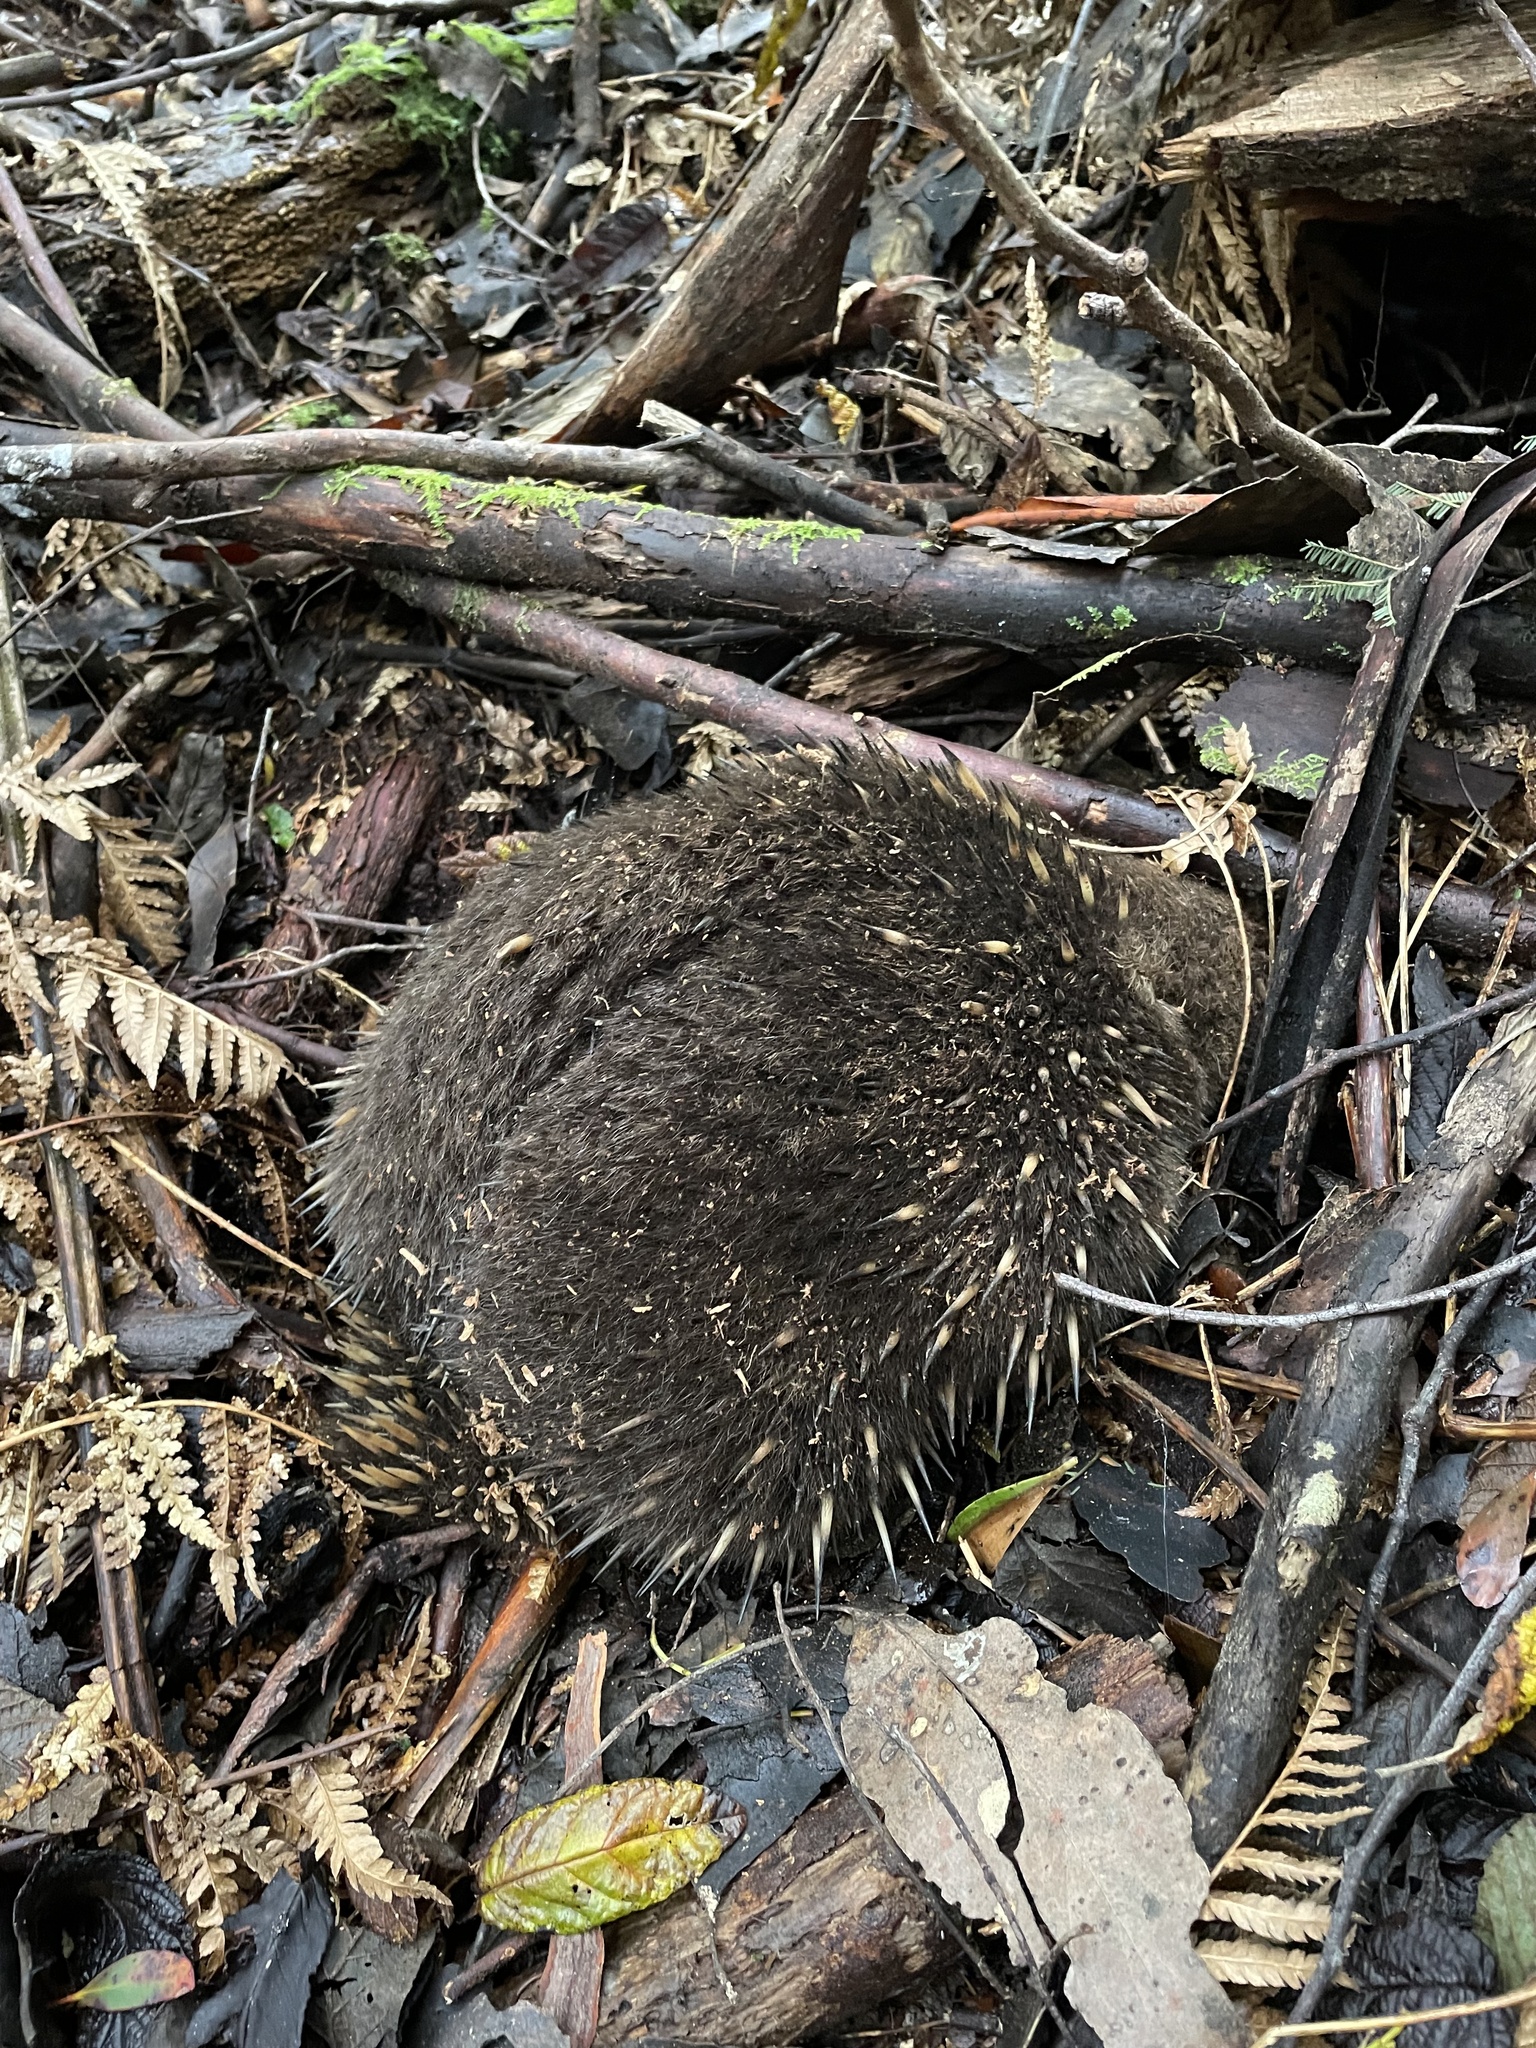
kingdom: Animalia
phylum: Chordata
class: Mammalia
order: Monotremata
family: Tachyglossidae
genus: Tachyglossus
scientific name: Tachyglossus aculeatus
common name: Short-beaked echidna
